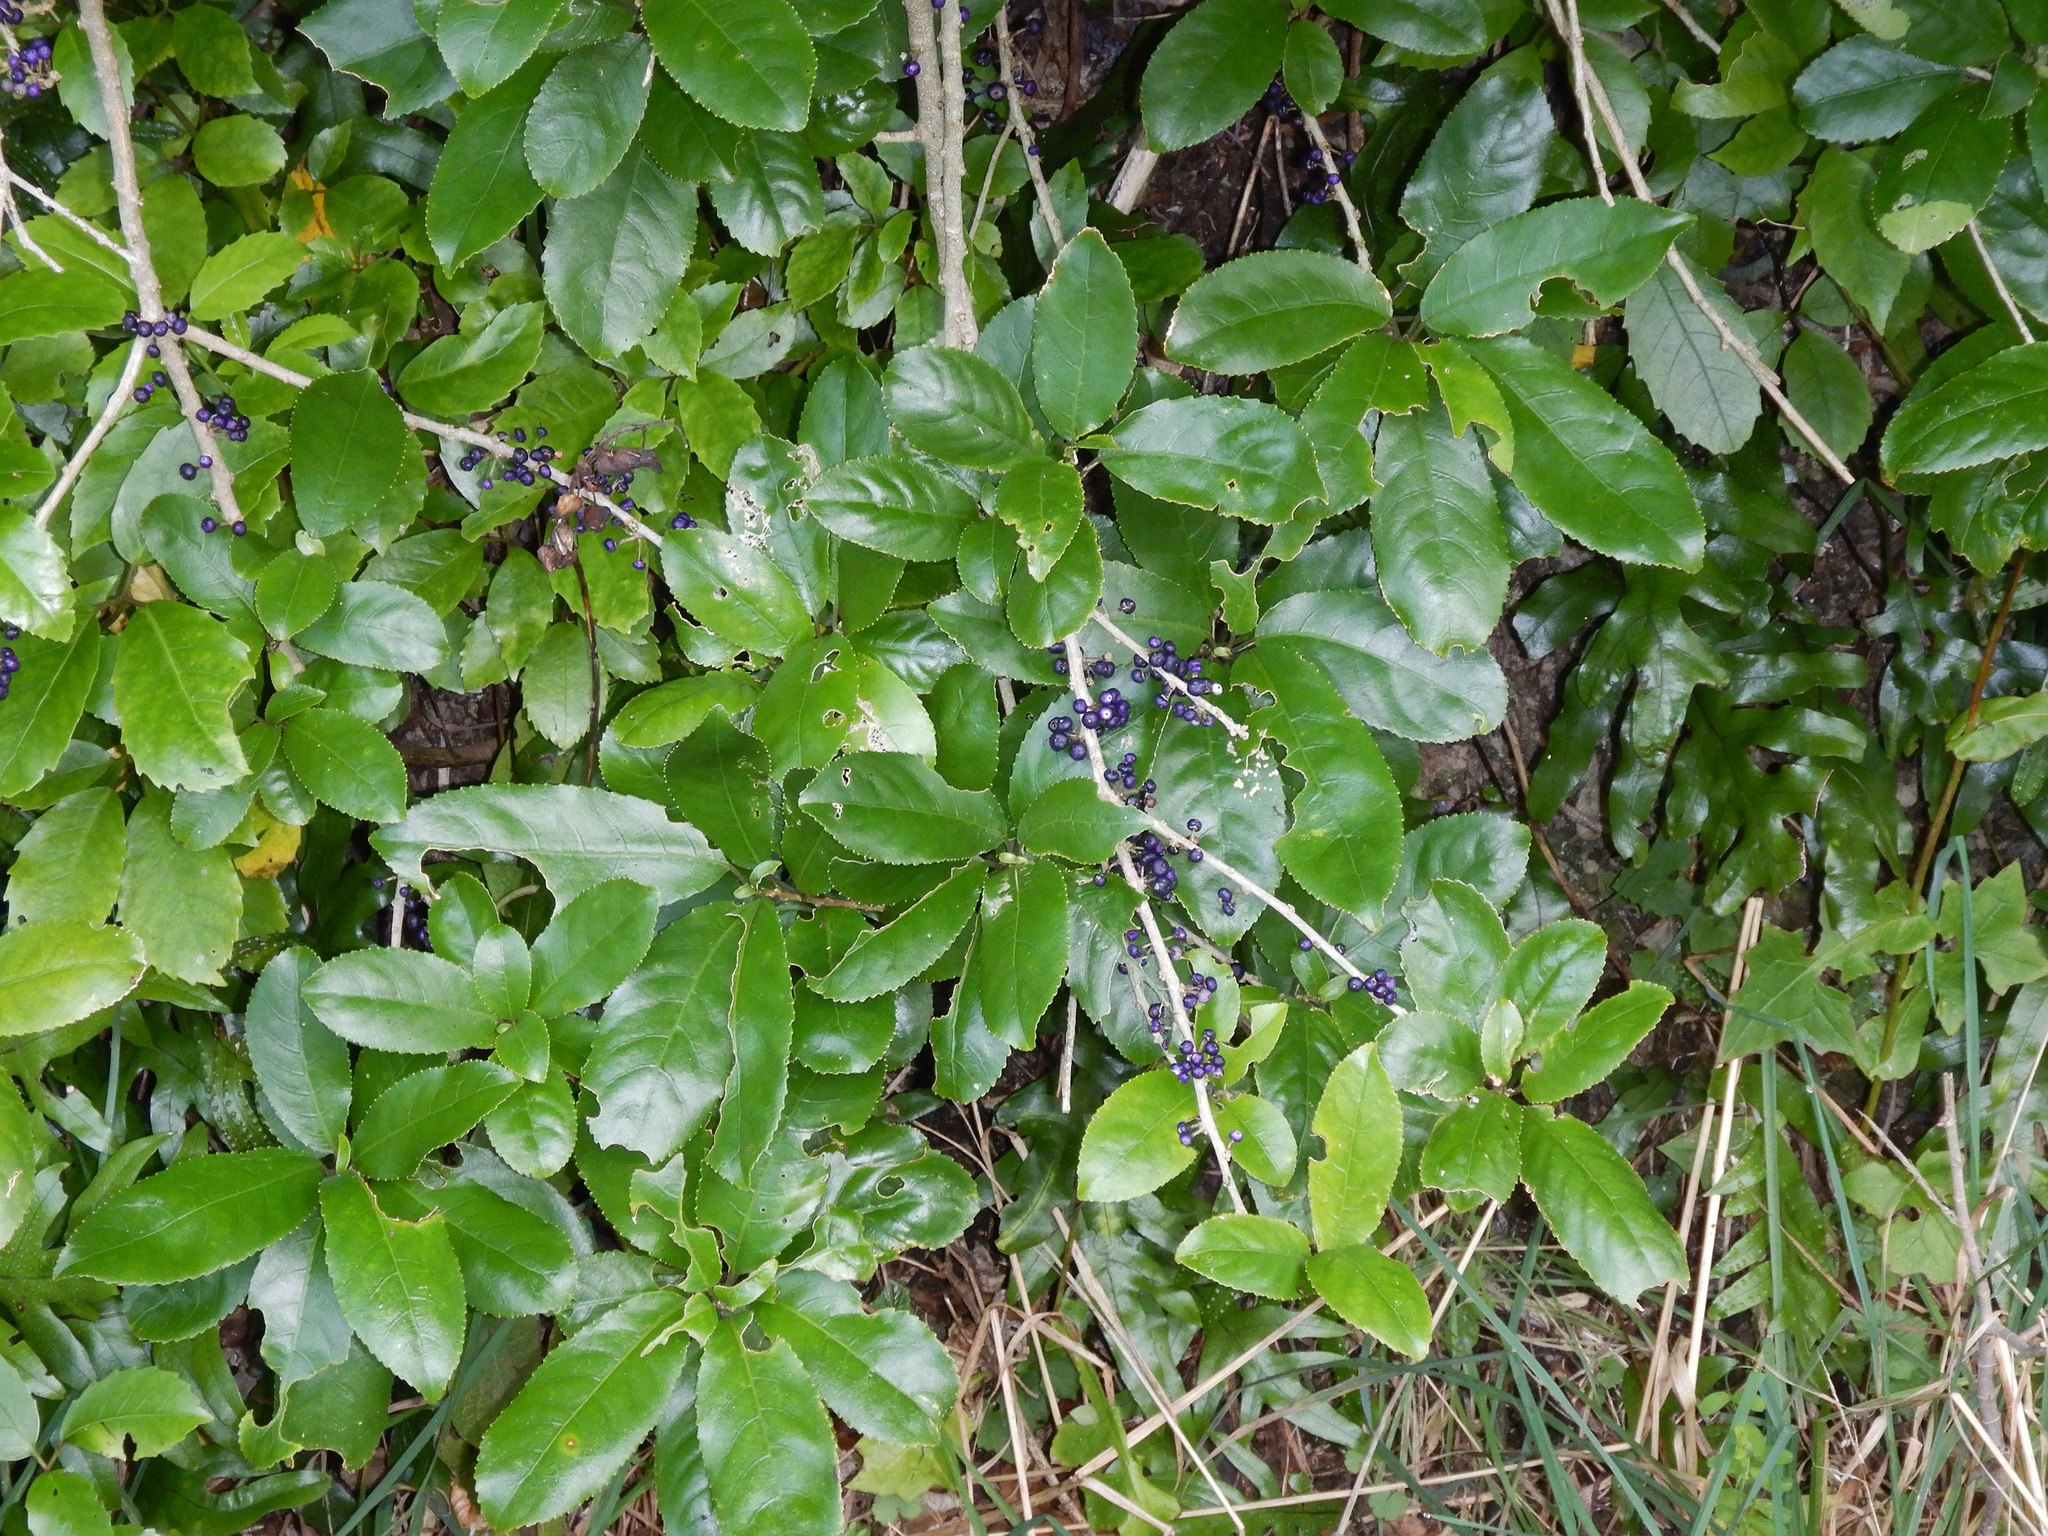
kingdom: Plantae
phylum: Tracheophyta
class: Magnoliopsida
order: Malpighiales
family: Violaceae
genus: Melicytus
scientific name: Melicytus ramiflorus
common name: Mahoe
